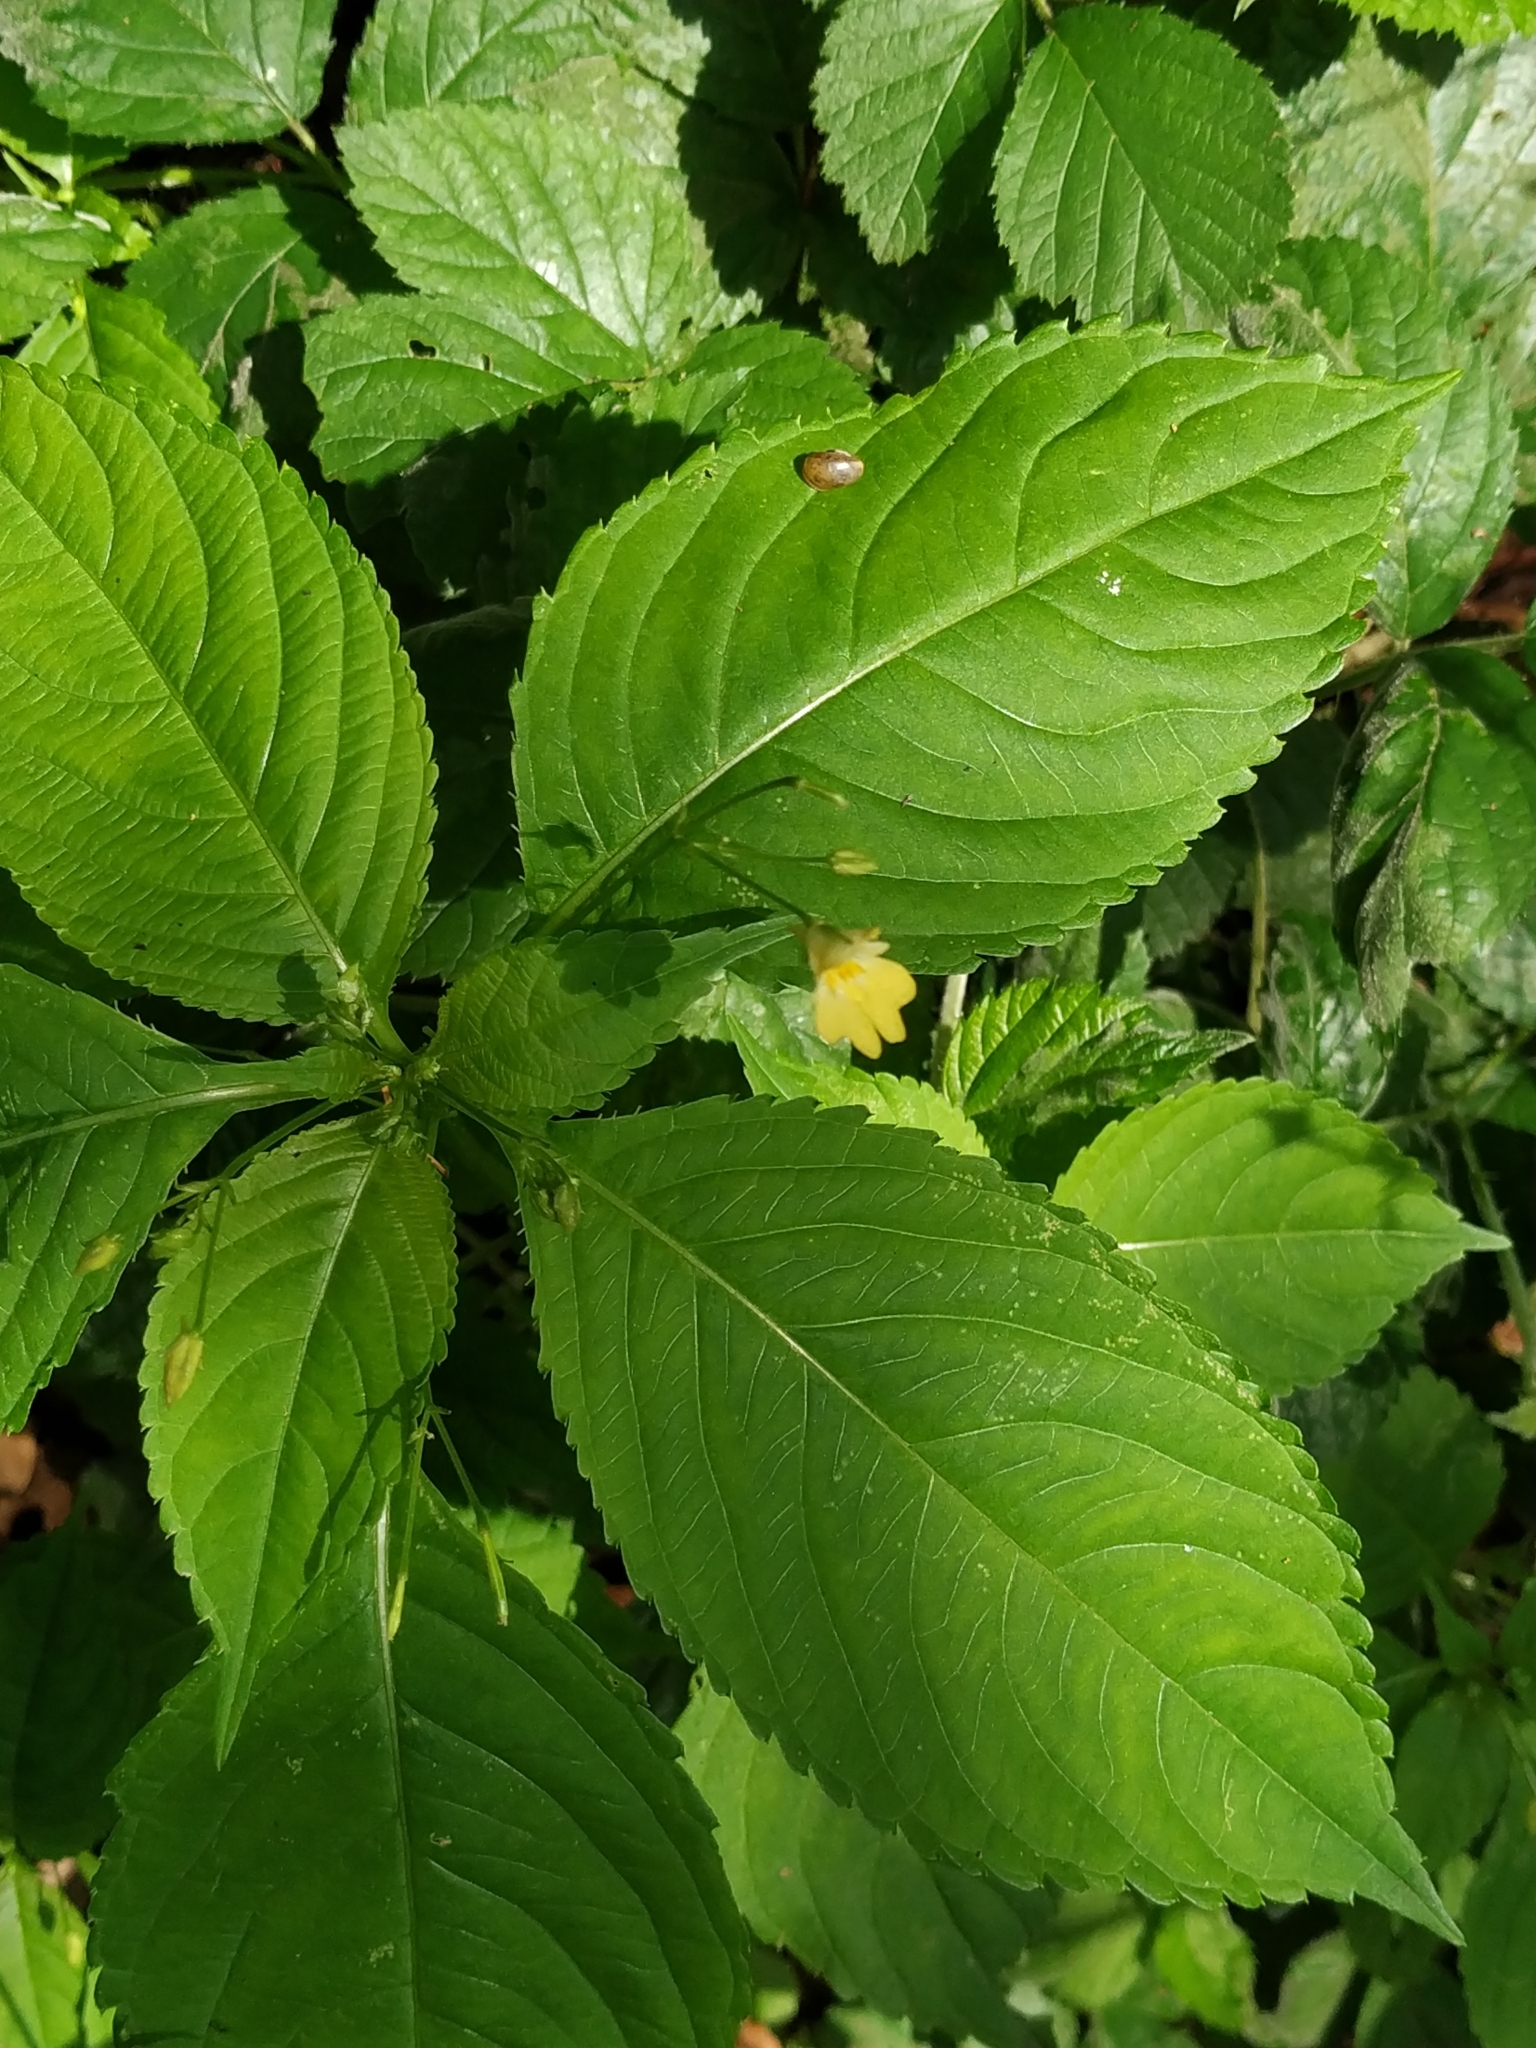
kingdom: Plantae
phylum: Tracheophyta
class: Magnoliopsida
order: Ericales
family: Balsaminaceae
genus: Impatiens
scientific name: Impatiens parviflora
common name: Small balsam
